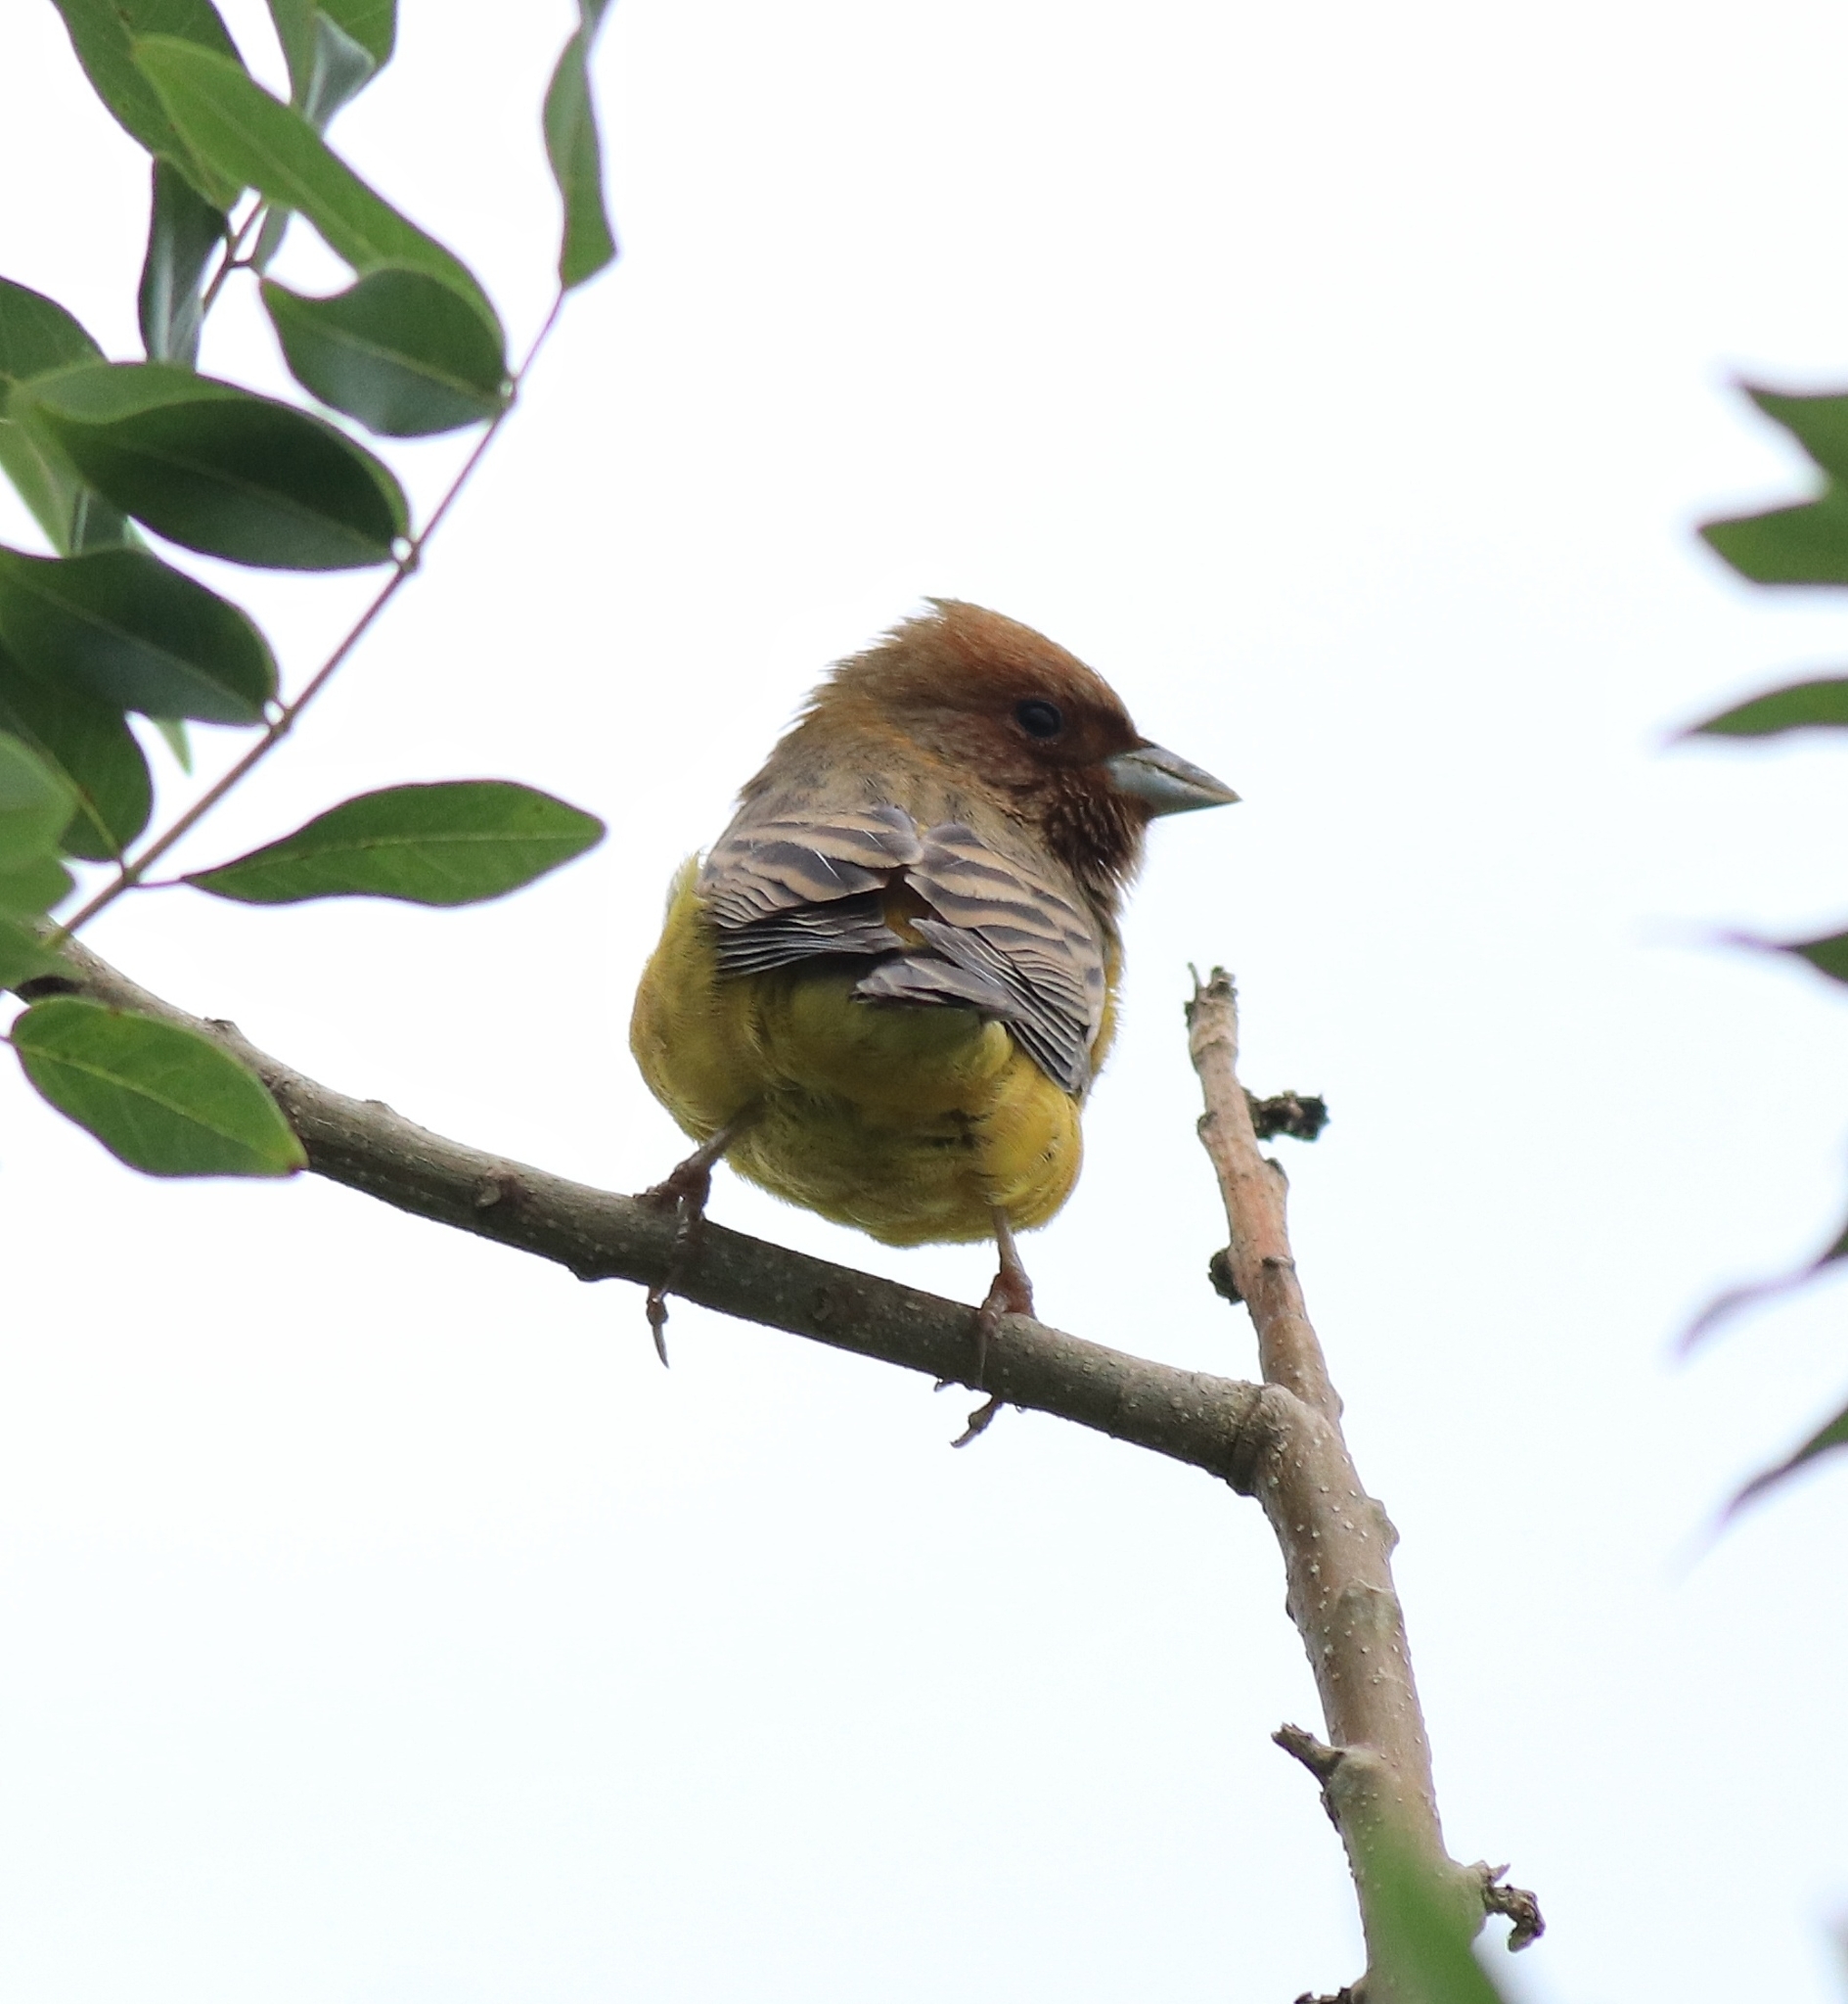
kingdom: Animalia
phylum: Chordata
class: Aves
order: Passeriformes
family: Emberizidae
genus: Emberiza
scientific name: Emberiza bruniceps
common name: Red-headed bunting
